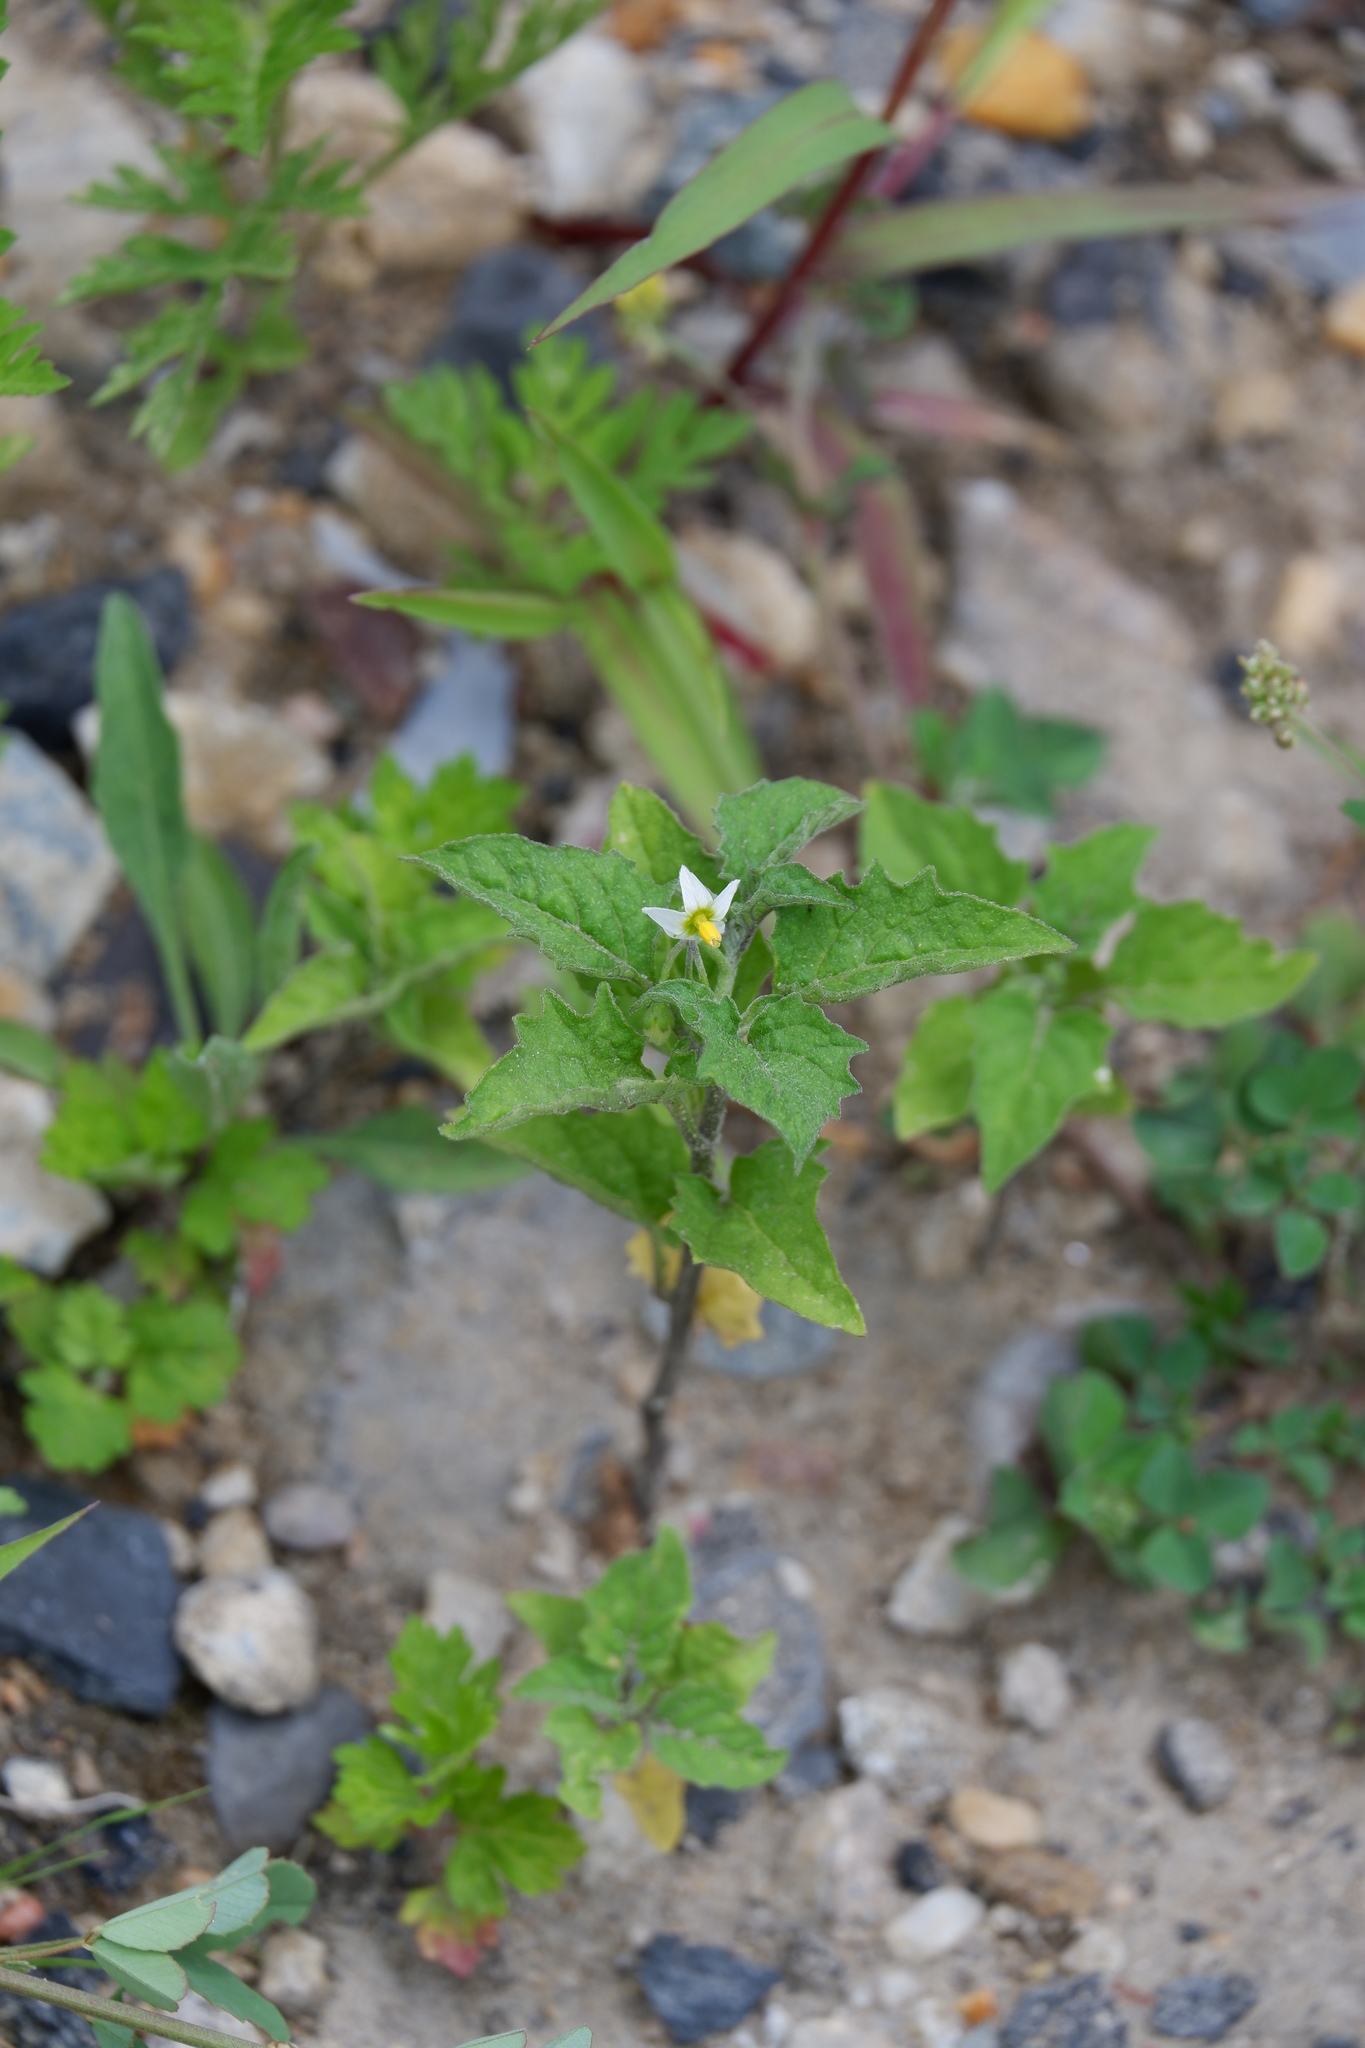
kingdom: Plantae
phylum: Tracheophyta
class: Magnoliopsida
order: Solanales
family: Solanaceae
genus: Solanum
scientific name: Solanum carolinense
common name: Horse-nettle
